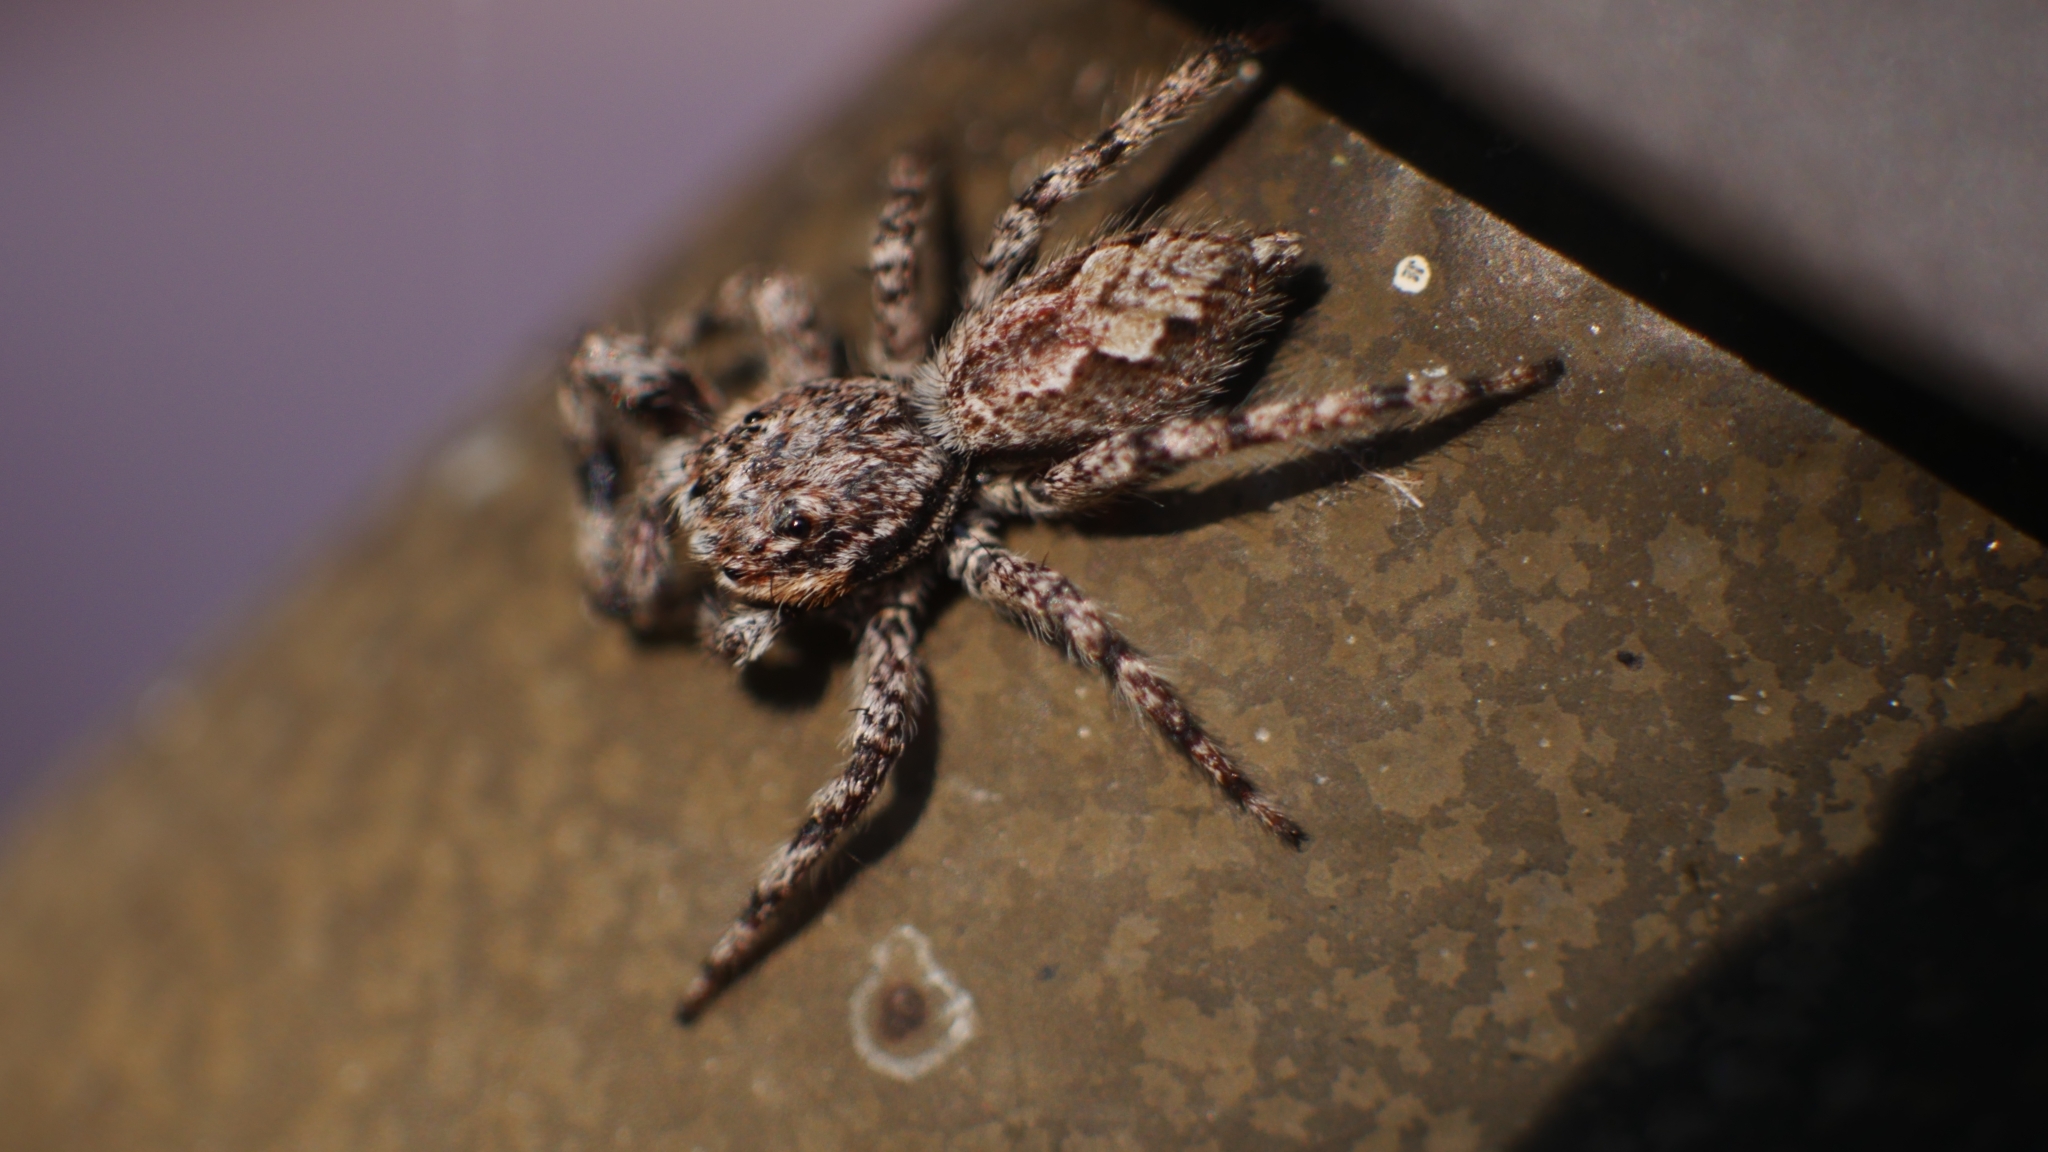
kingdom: Animalia
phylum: Arthropoda
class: Arachnida
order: Araneae
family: Salticidae
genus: Platycryptus
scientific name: Platycryptus undatus
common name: Tan jumping spider
